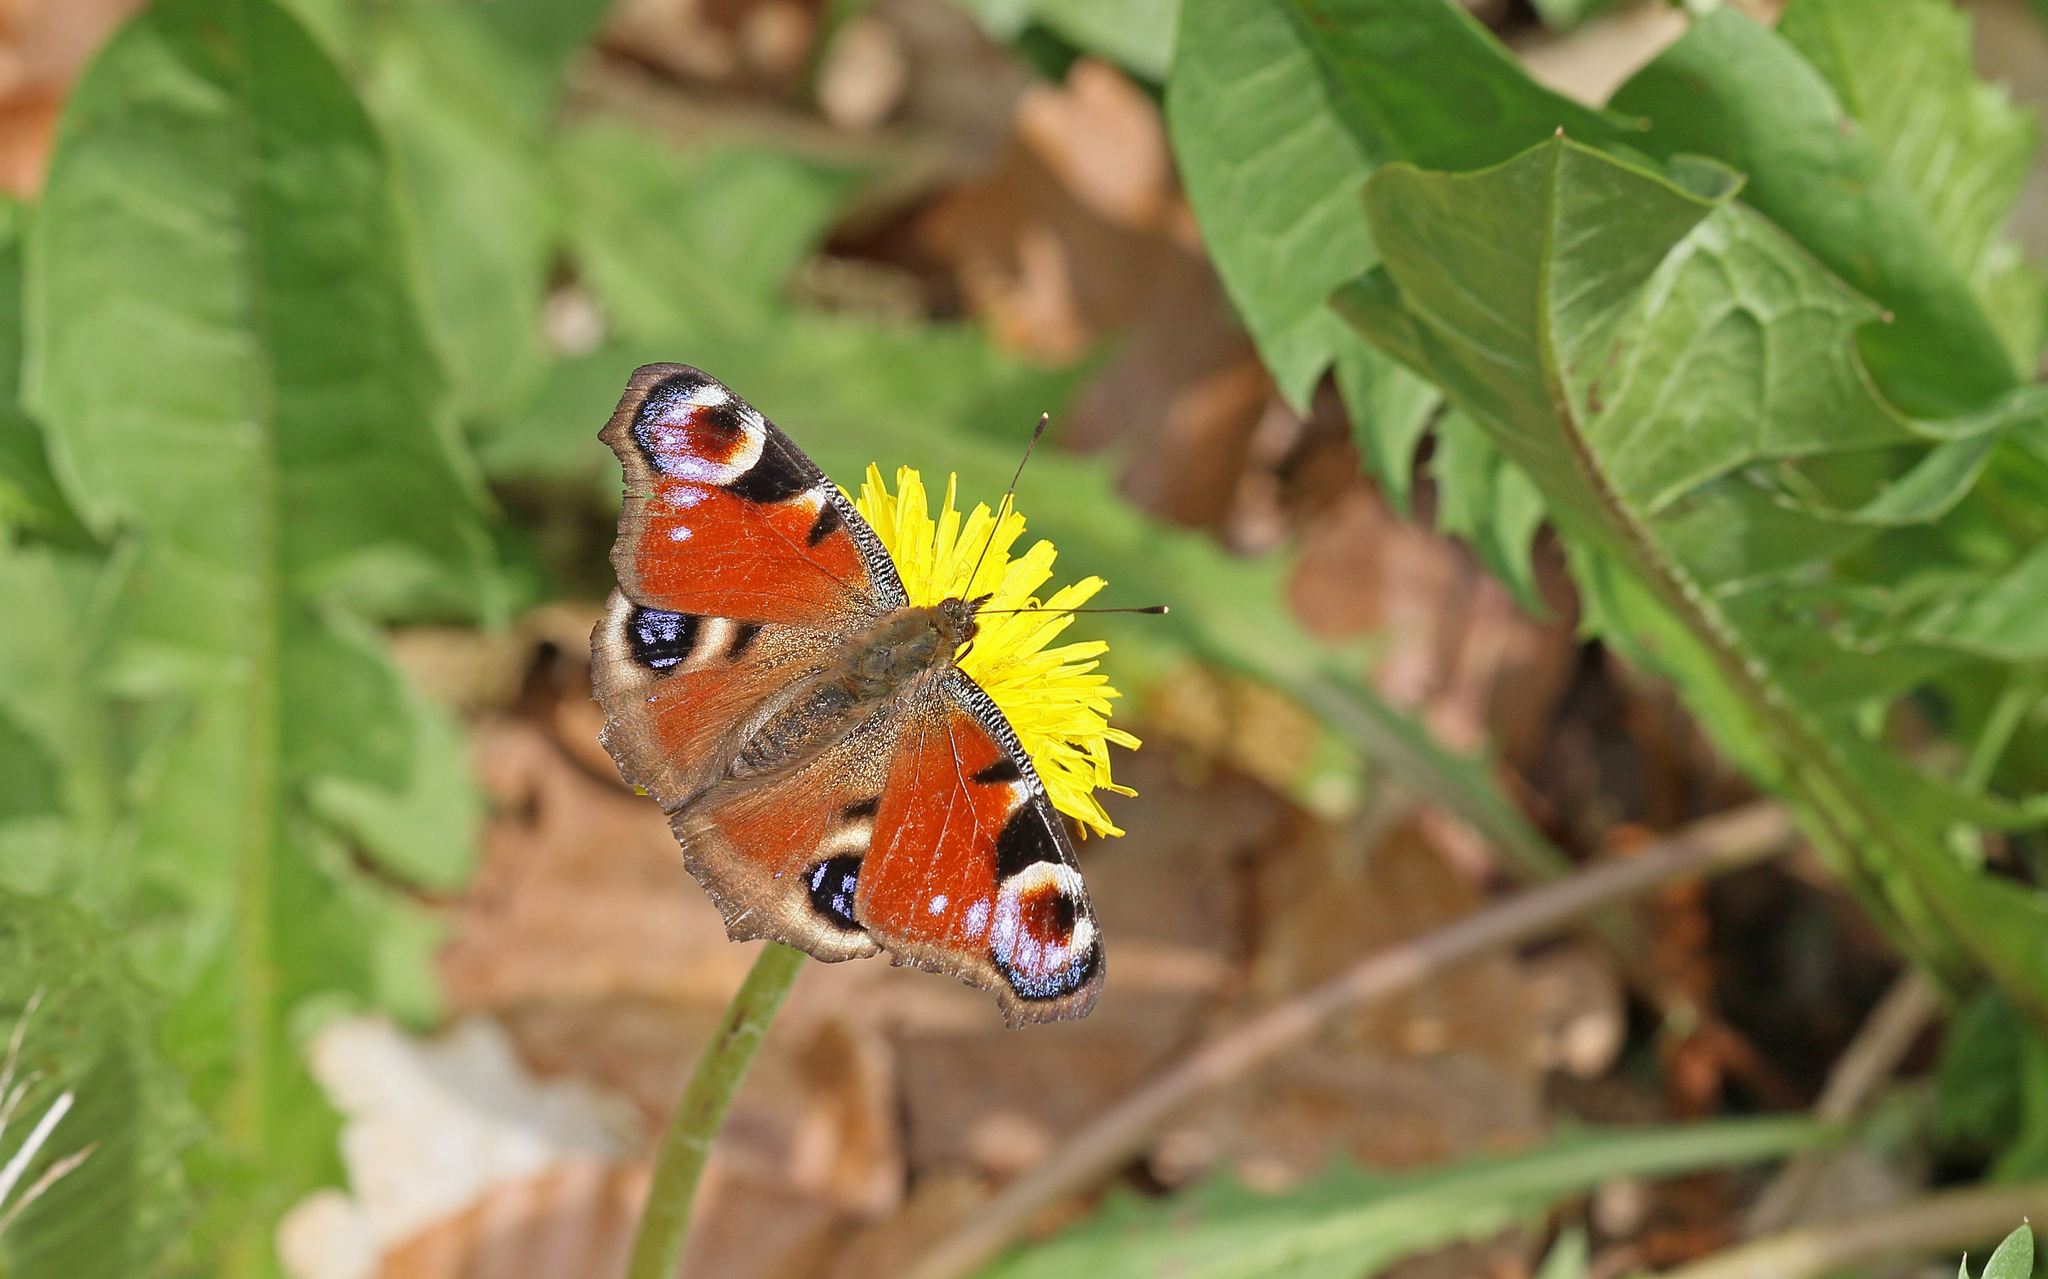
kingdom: Animalia
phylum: Arthropoda
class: Insecta
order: Lepidoptera
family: Nymphalidae
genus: Aglais
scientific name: Aglais io
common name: Peacock
